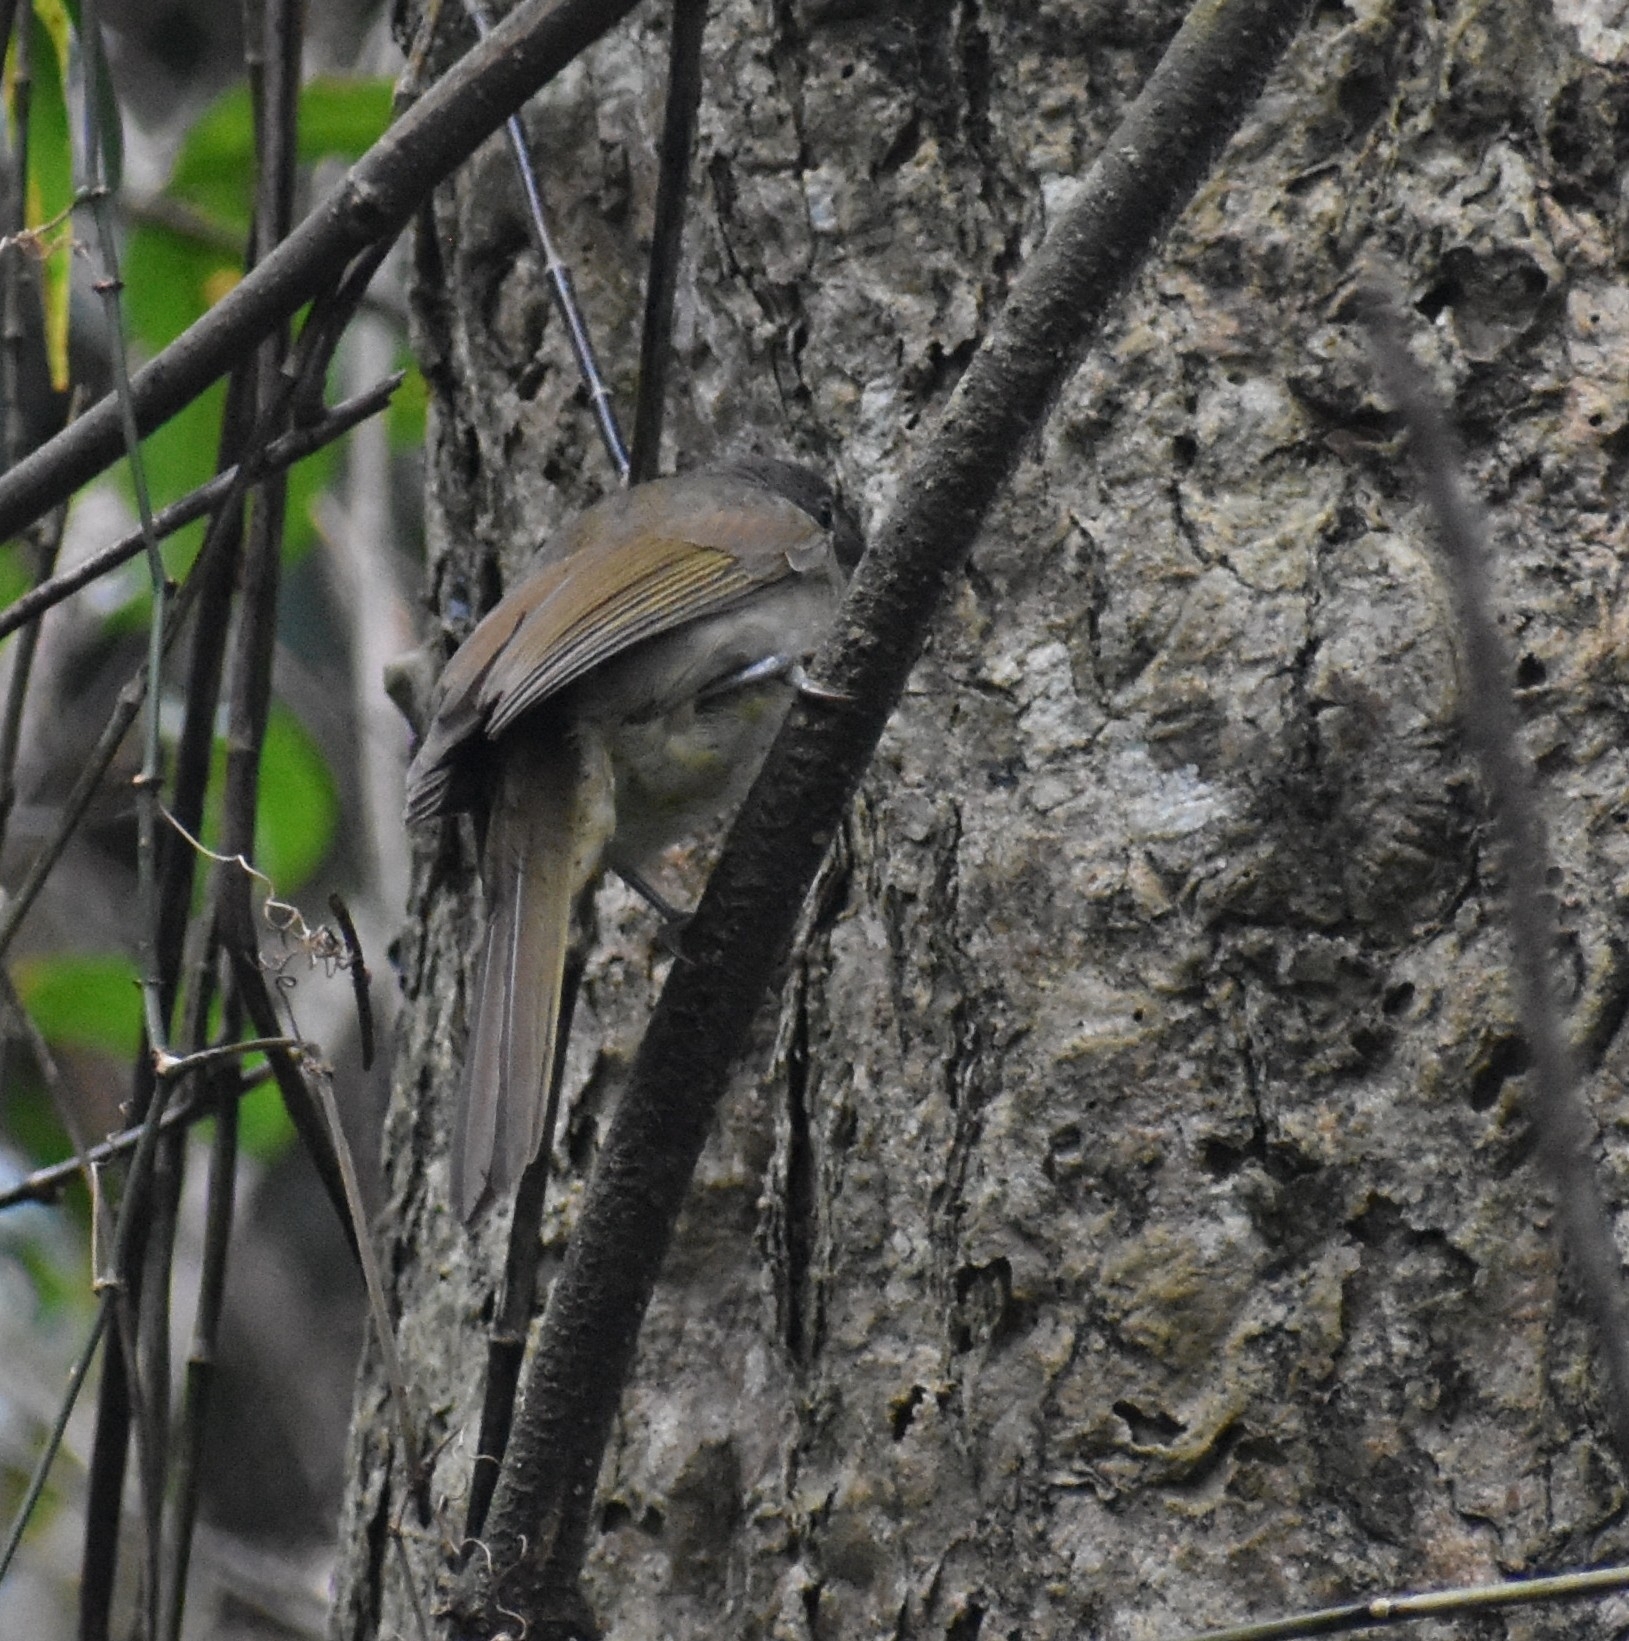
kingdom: Animalia
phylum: Chordata
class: Aves
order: Passeriformes
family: Pycnonotidae
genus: Phyllastrephus
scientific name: Phyllastrephus flavostriatus
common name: Yellow-streaked greenbul
